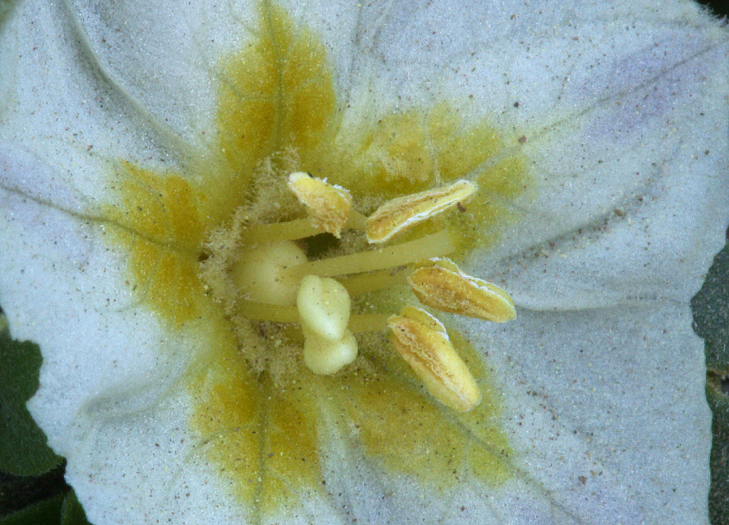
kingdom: Plantae
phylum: Tracheophyta
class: Magnoliopsida
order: Solanales
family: Solanaceae
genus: Leucophysalis
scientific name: Leucophysalis nana
